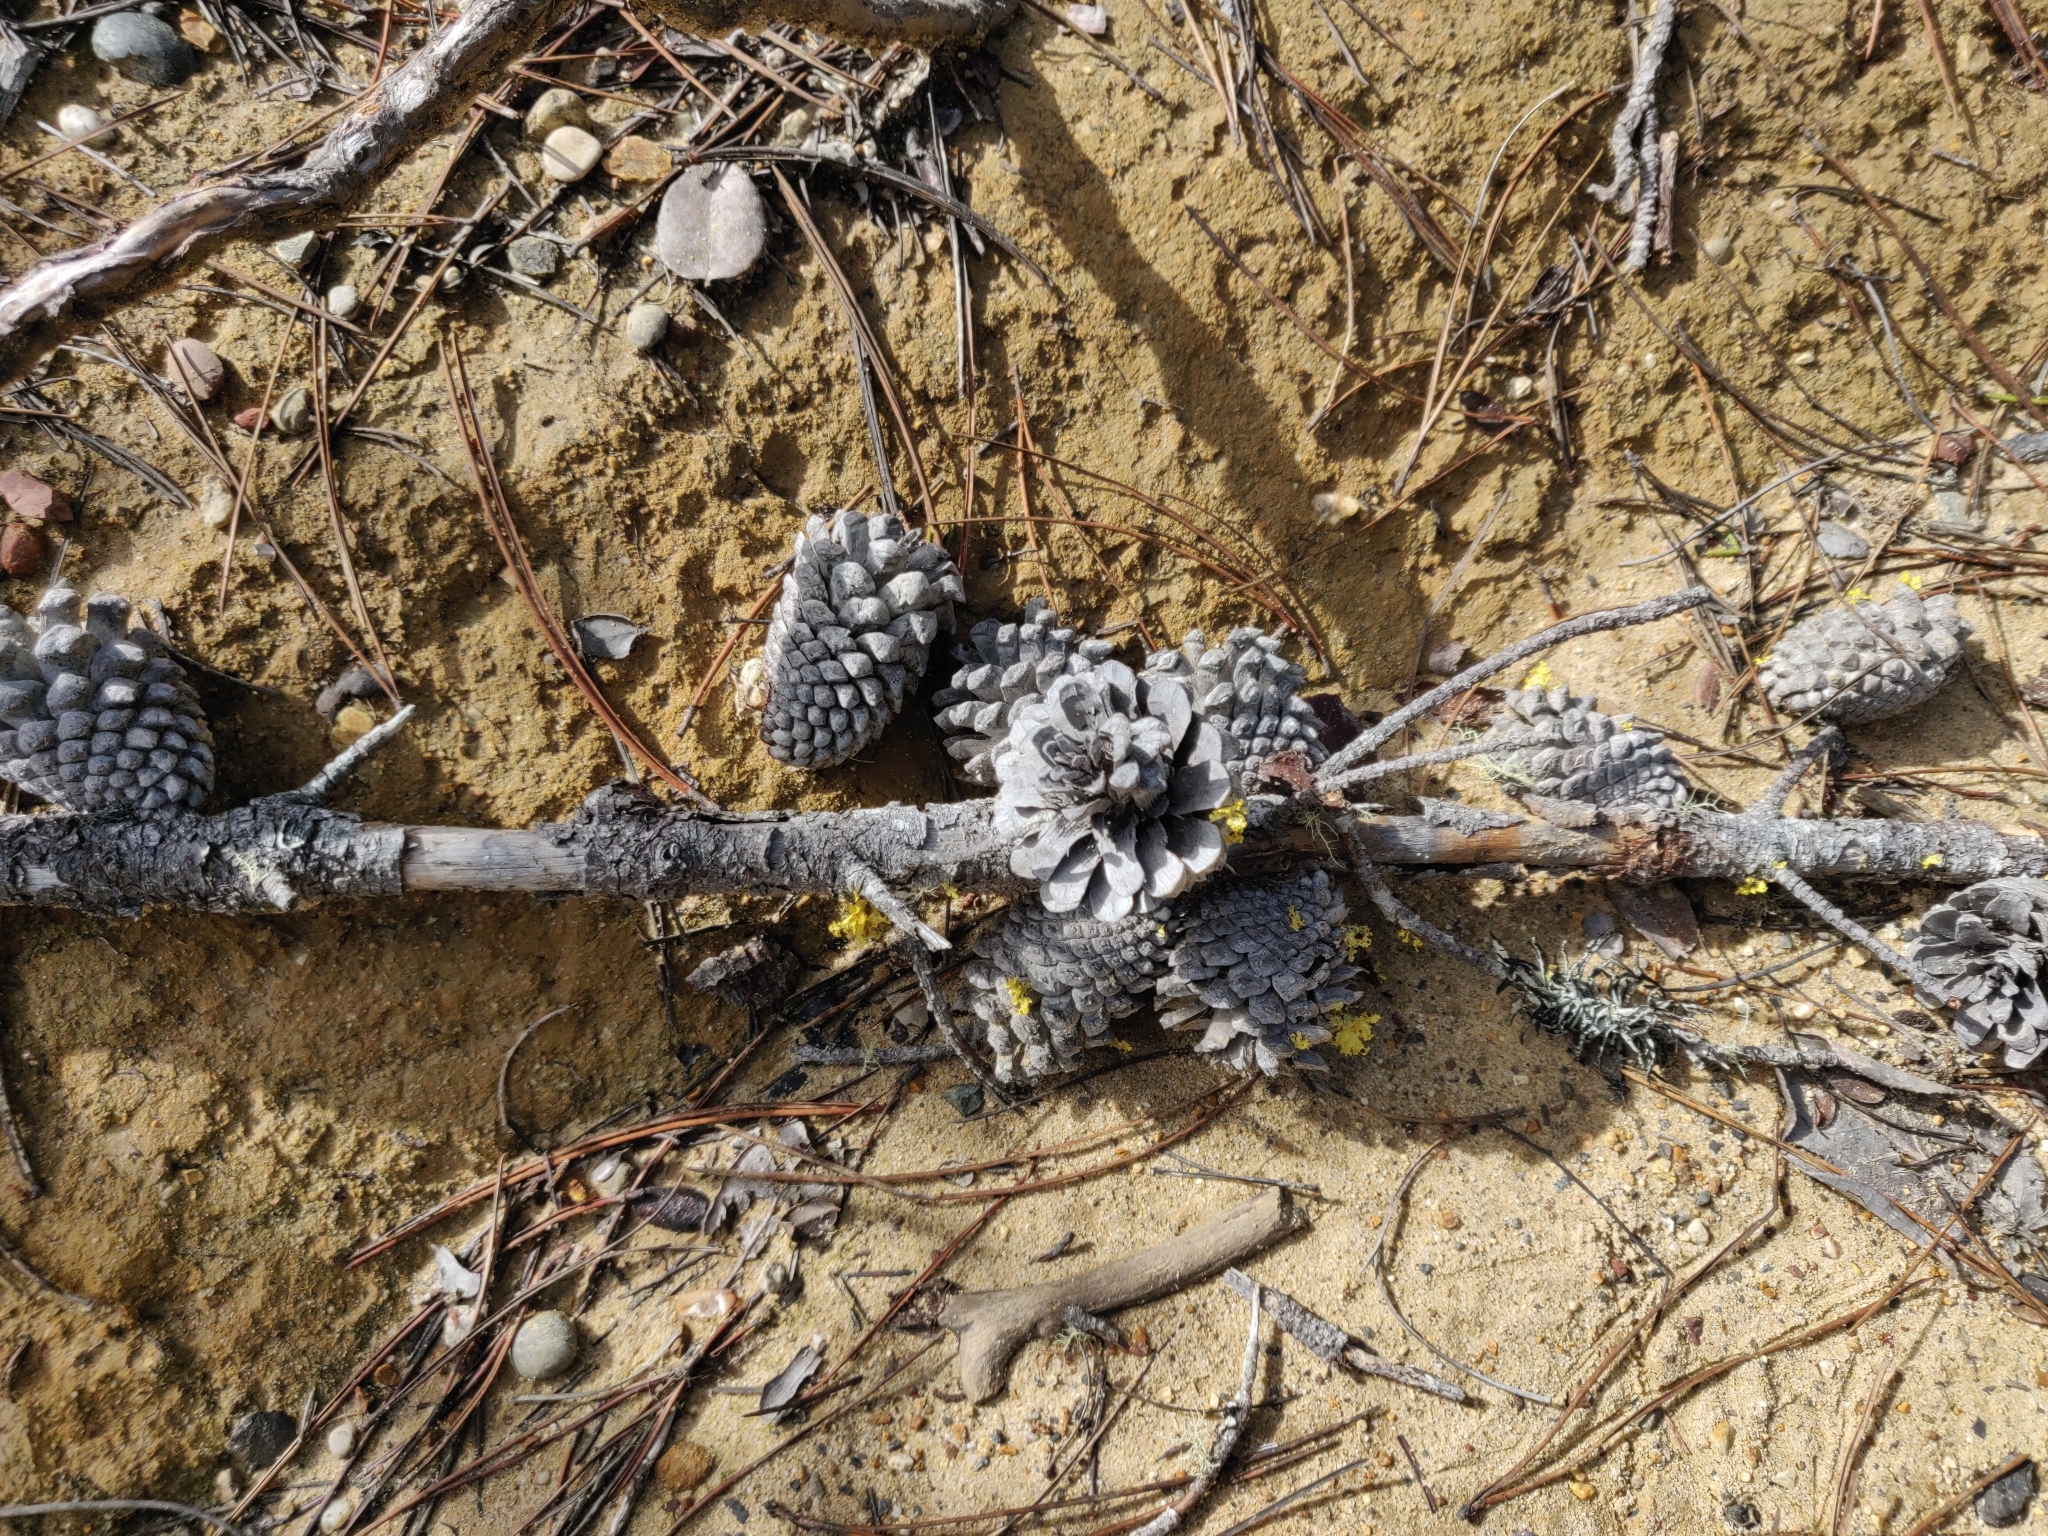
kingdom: Plantae
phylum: Tracheophyta
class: Pinopsida
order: Pinales
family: Pinaceae
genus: Pinus
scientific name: Pinus muricata
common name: Bishop pine
